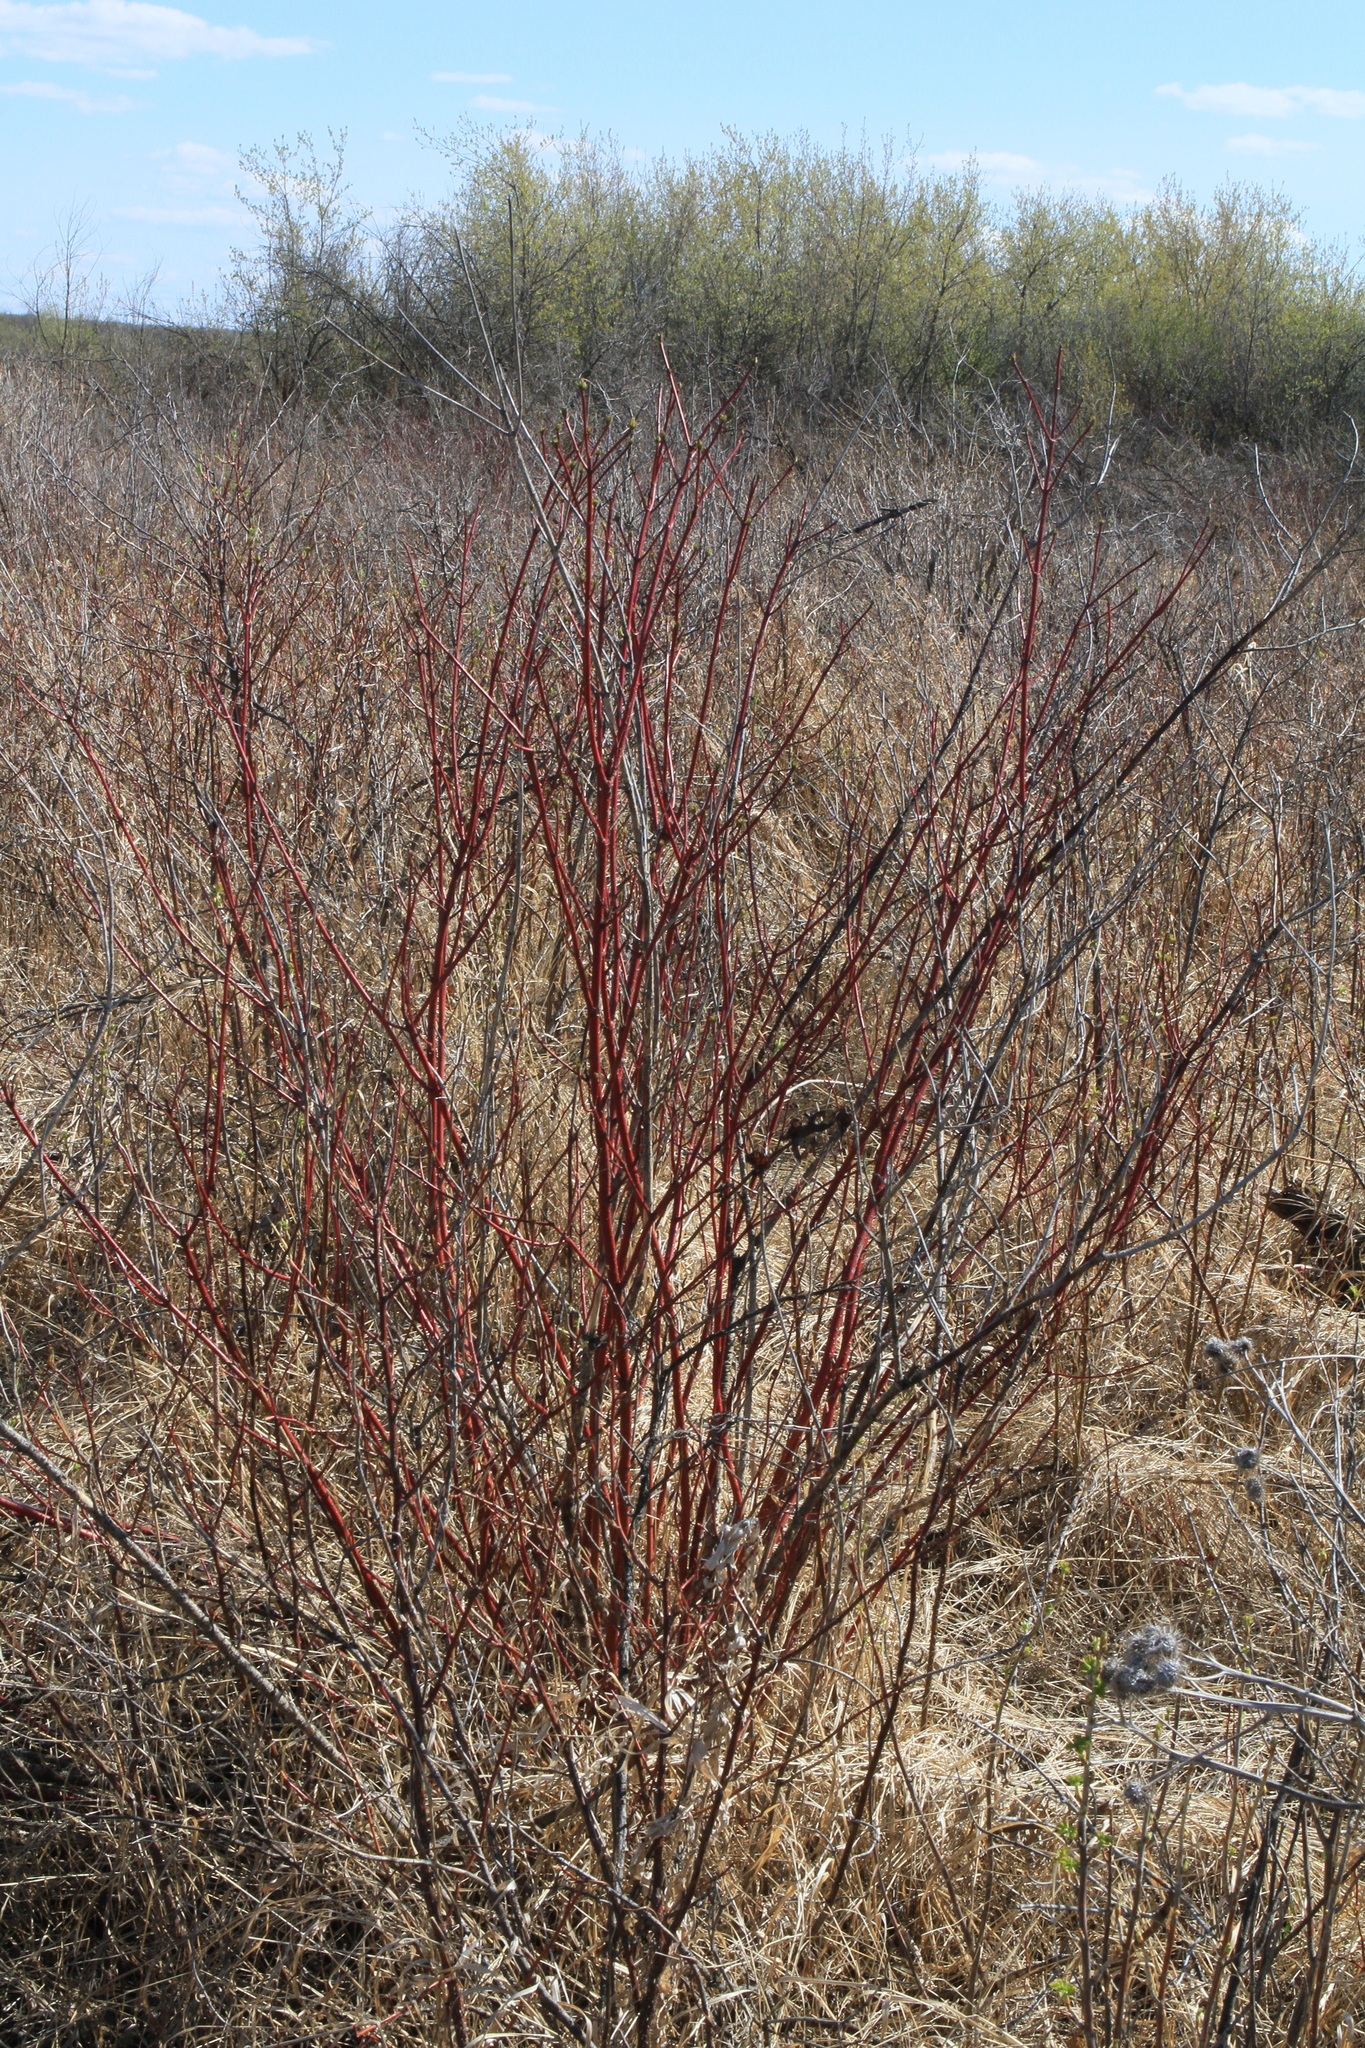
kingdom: Plantae
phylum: Tracheophyta
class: Magnoliopsida
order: Cornales
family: Cornaceae
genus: Cornus
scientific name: Cornus alba
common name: White dogwood
